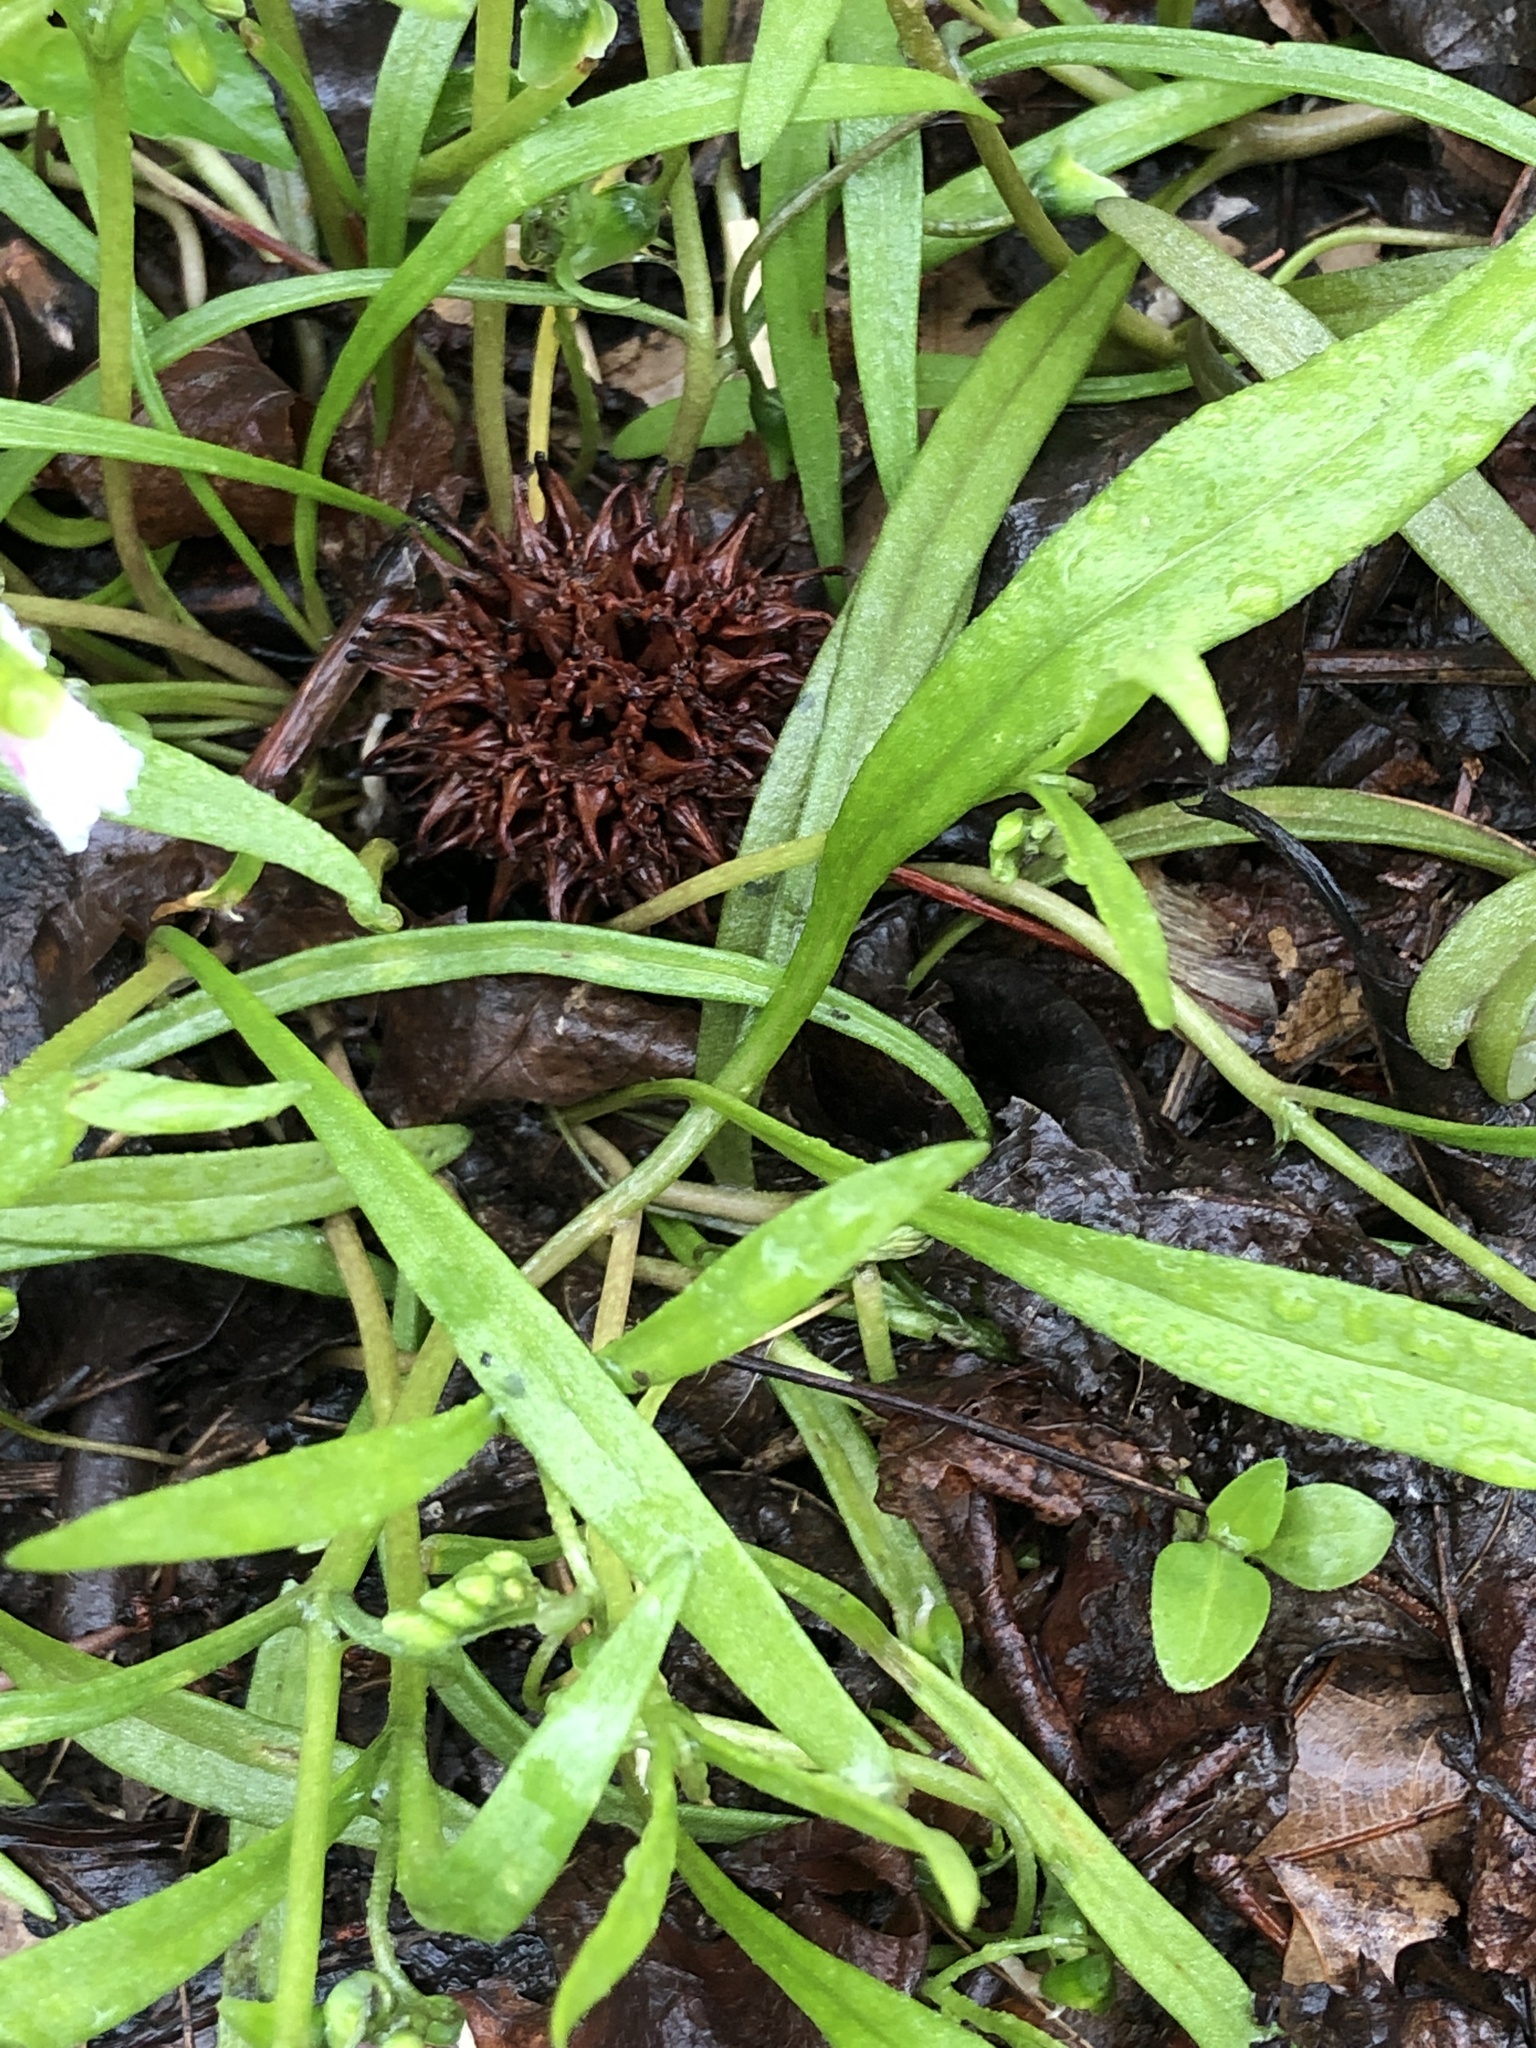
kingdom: Plantae
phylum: Tracheophyta
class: Magnoliopsida
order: Caryophyllales
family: Montiaceae
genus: Claytonia
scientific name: Claytonia virginica
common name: Virginia springbeauty
